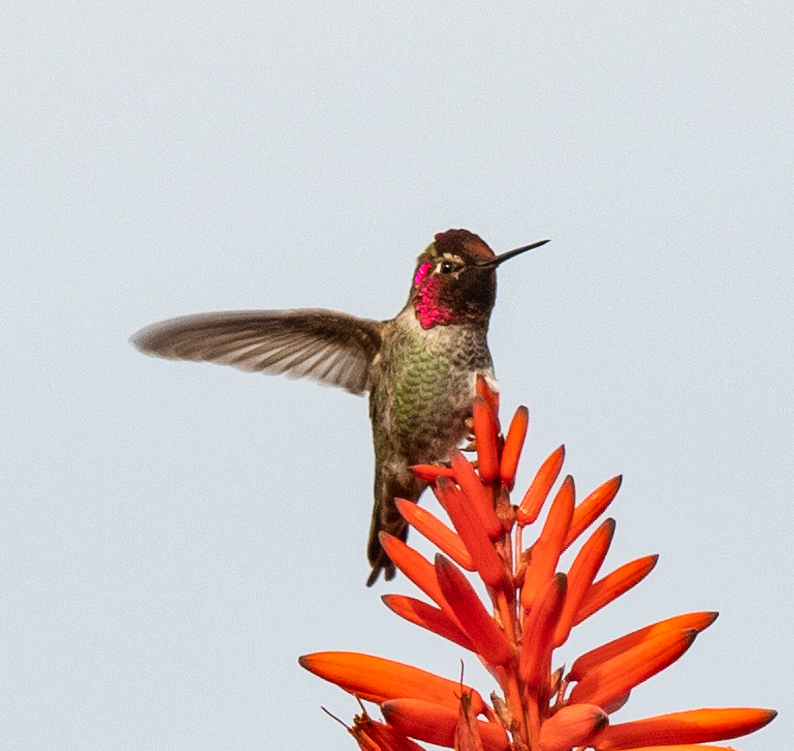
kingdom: Animalia
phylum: Chordata
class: Aves
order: Apodiformes
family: Trochilidae
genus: Calypte
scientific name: Calypte anna
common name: Anna's hummingbird
